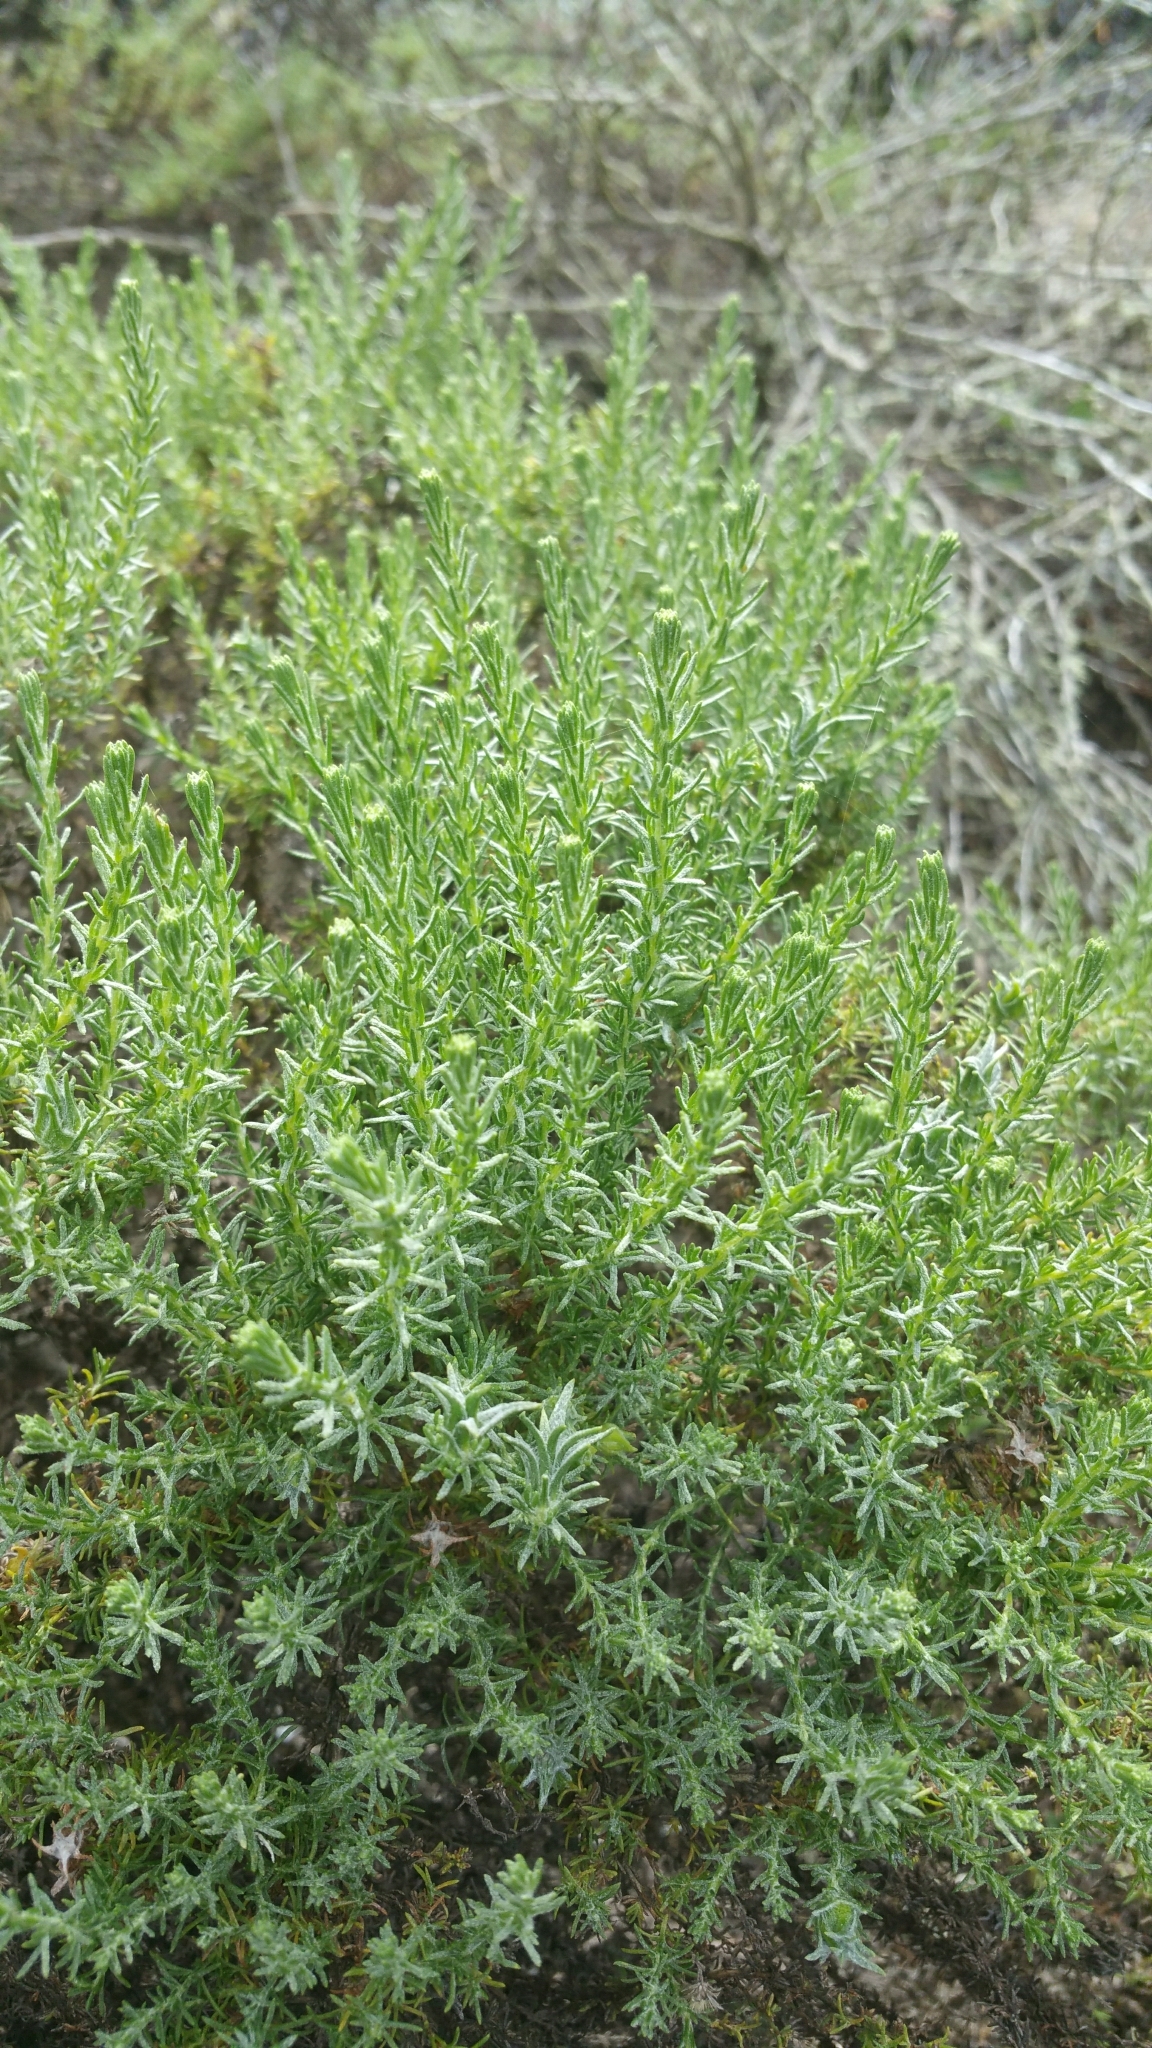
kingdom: Plantae
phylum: Tracheophyta
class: Magnoliopsida
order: Asterales
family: Asteraceae
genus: Ericameria
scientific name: Ericameria ericoides
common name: California goldenbush
